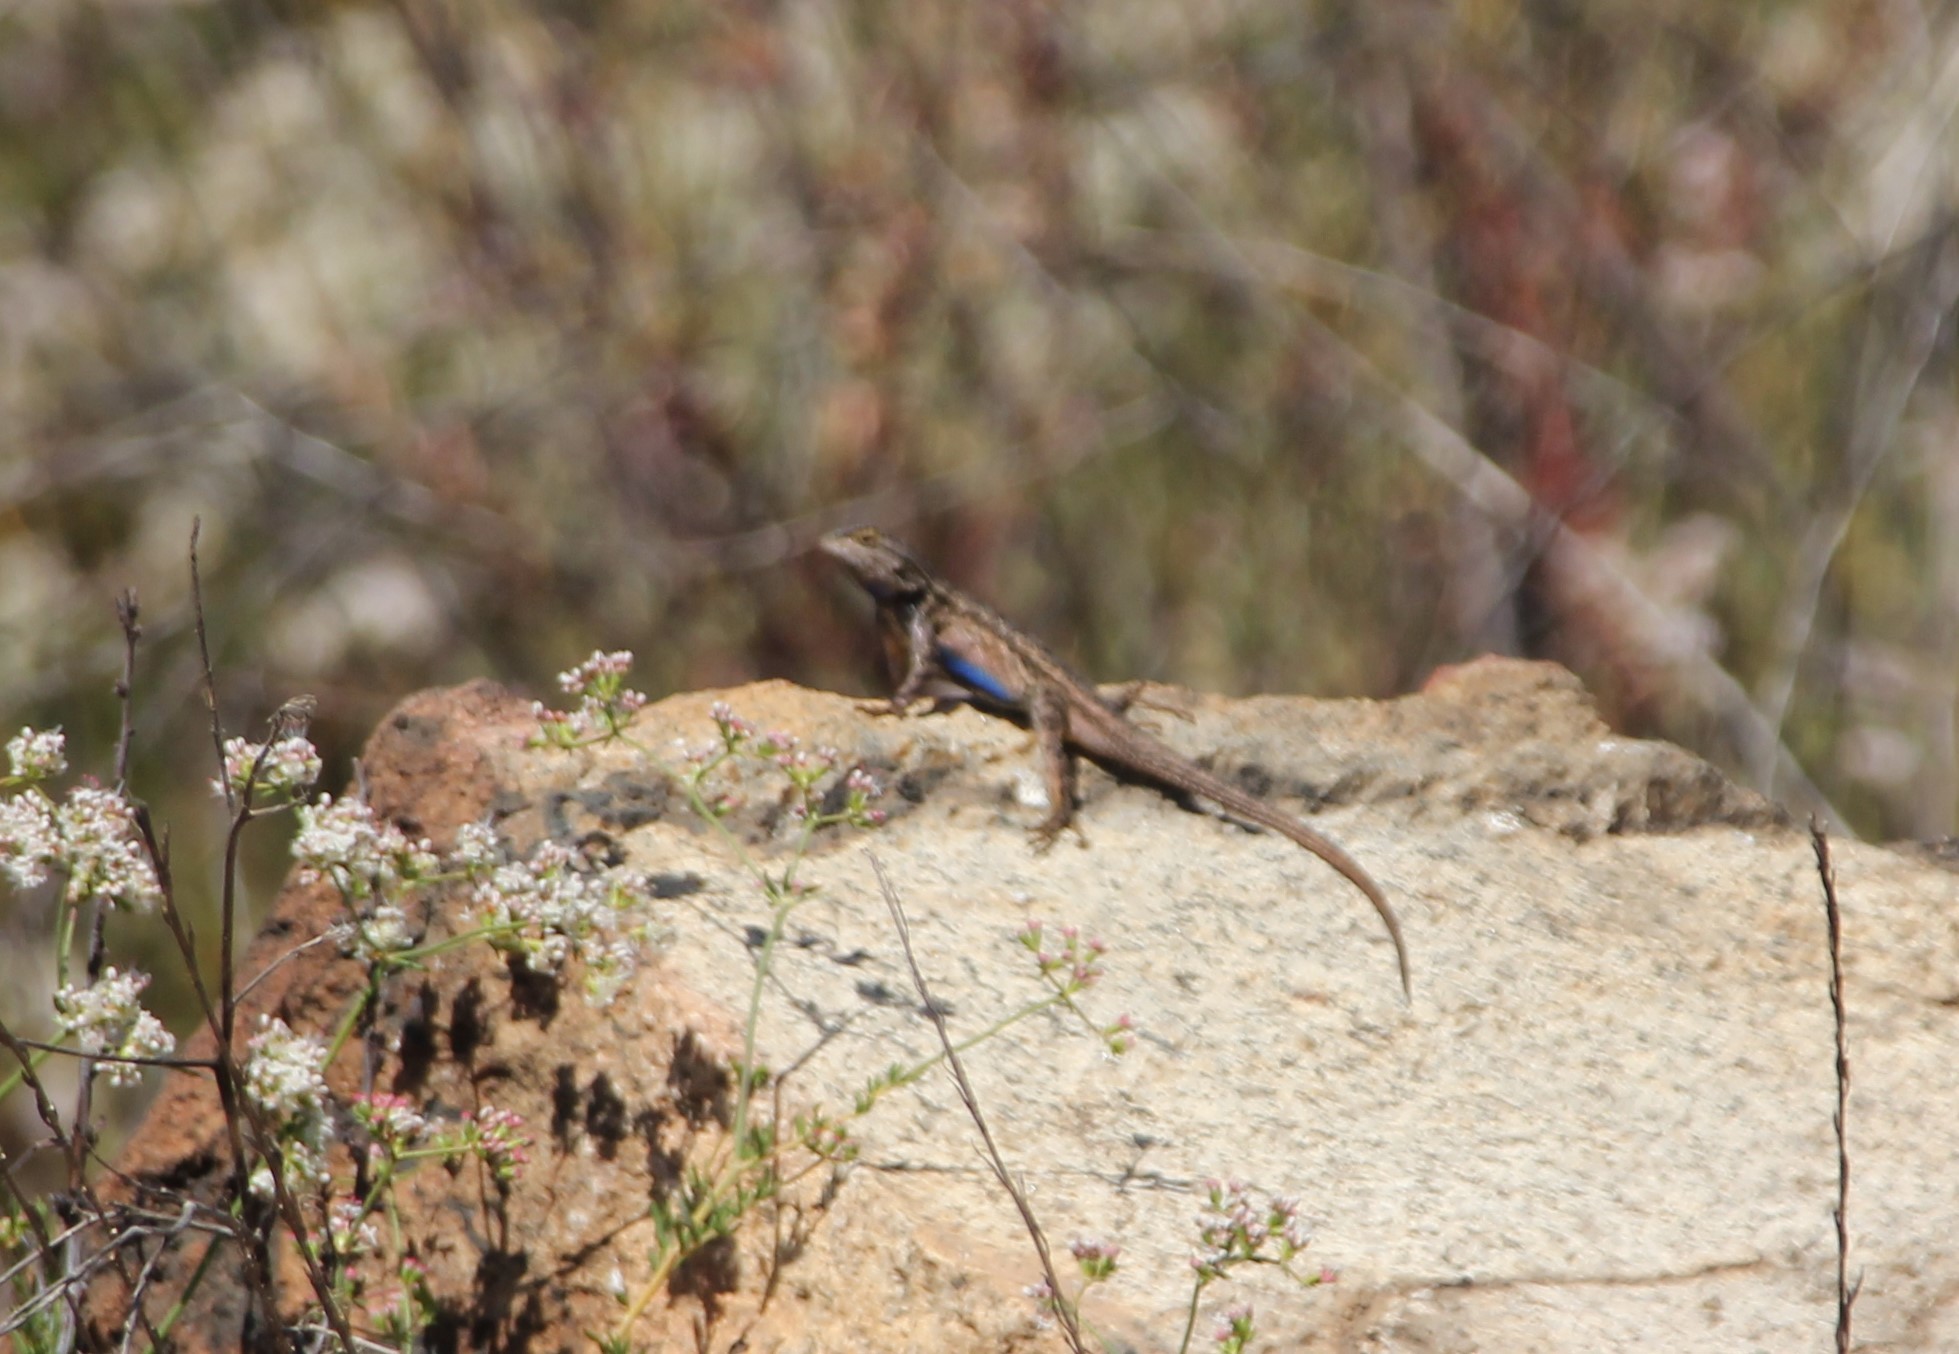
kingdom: Animalia
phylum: Chordata
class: Squamata
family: Phrynosomatidae
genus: Sceloporus
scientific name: Sceloporus occidentalis
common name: Western fence lizard
